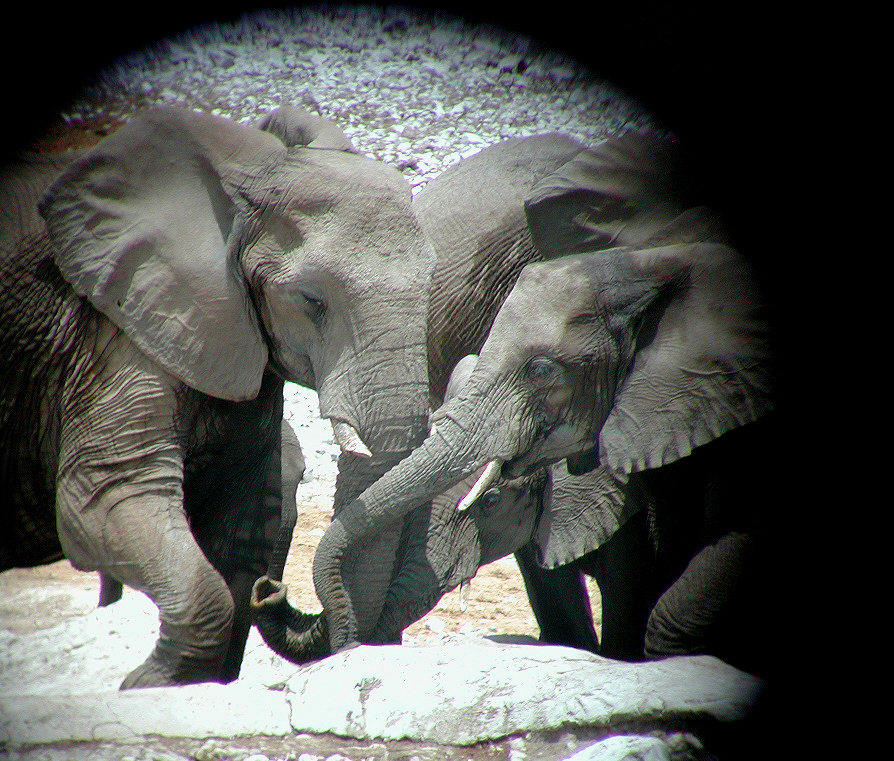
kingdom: Animalia
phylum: Chordata
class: Mammalia
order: Proboscidea
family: Elephantidae
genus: Loxodonta
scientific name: Loxodonta africana
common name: African elephant
